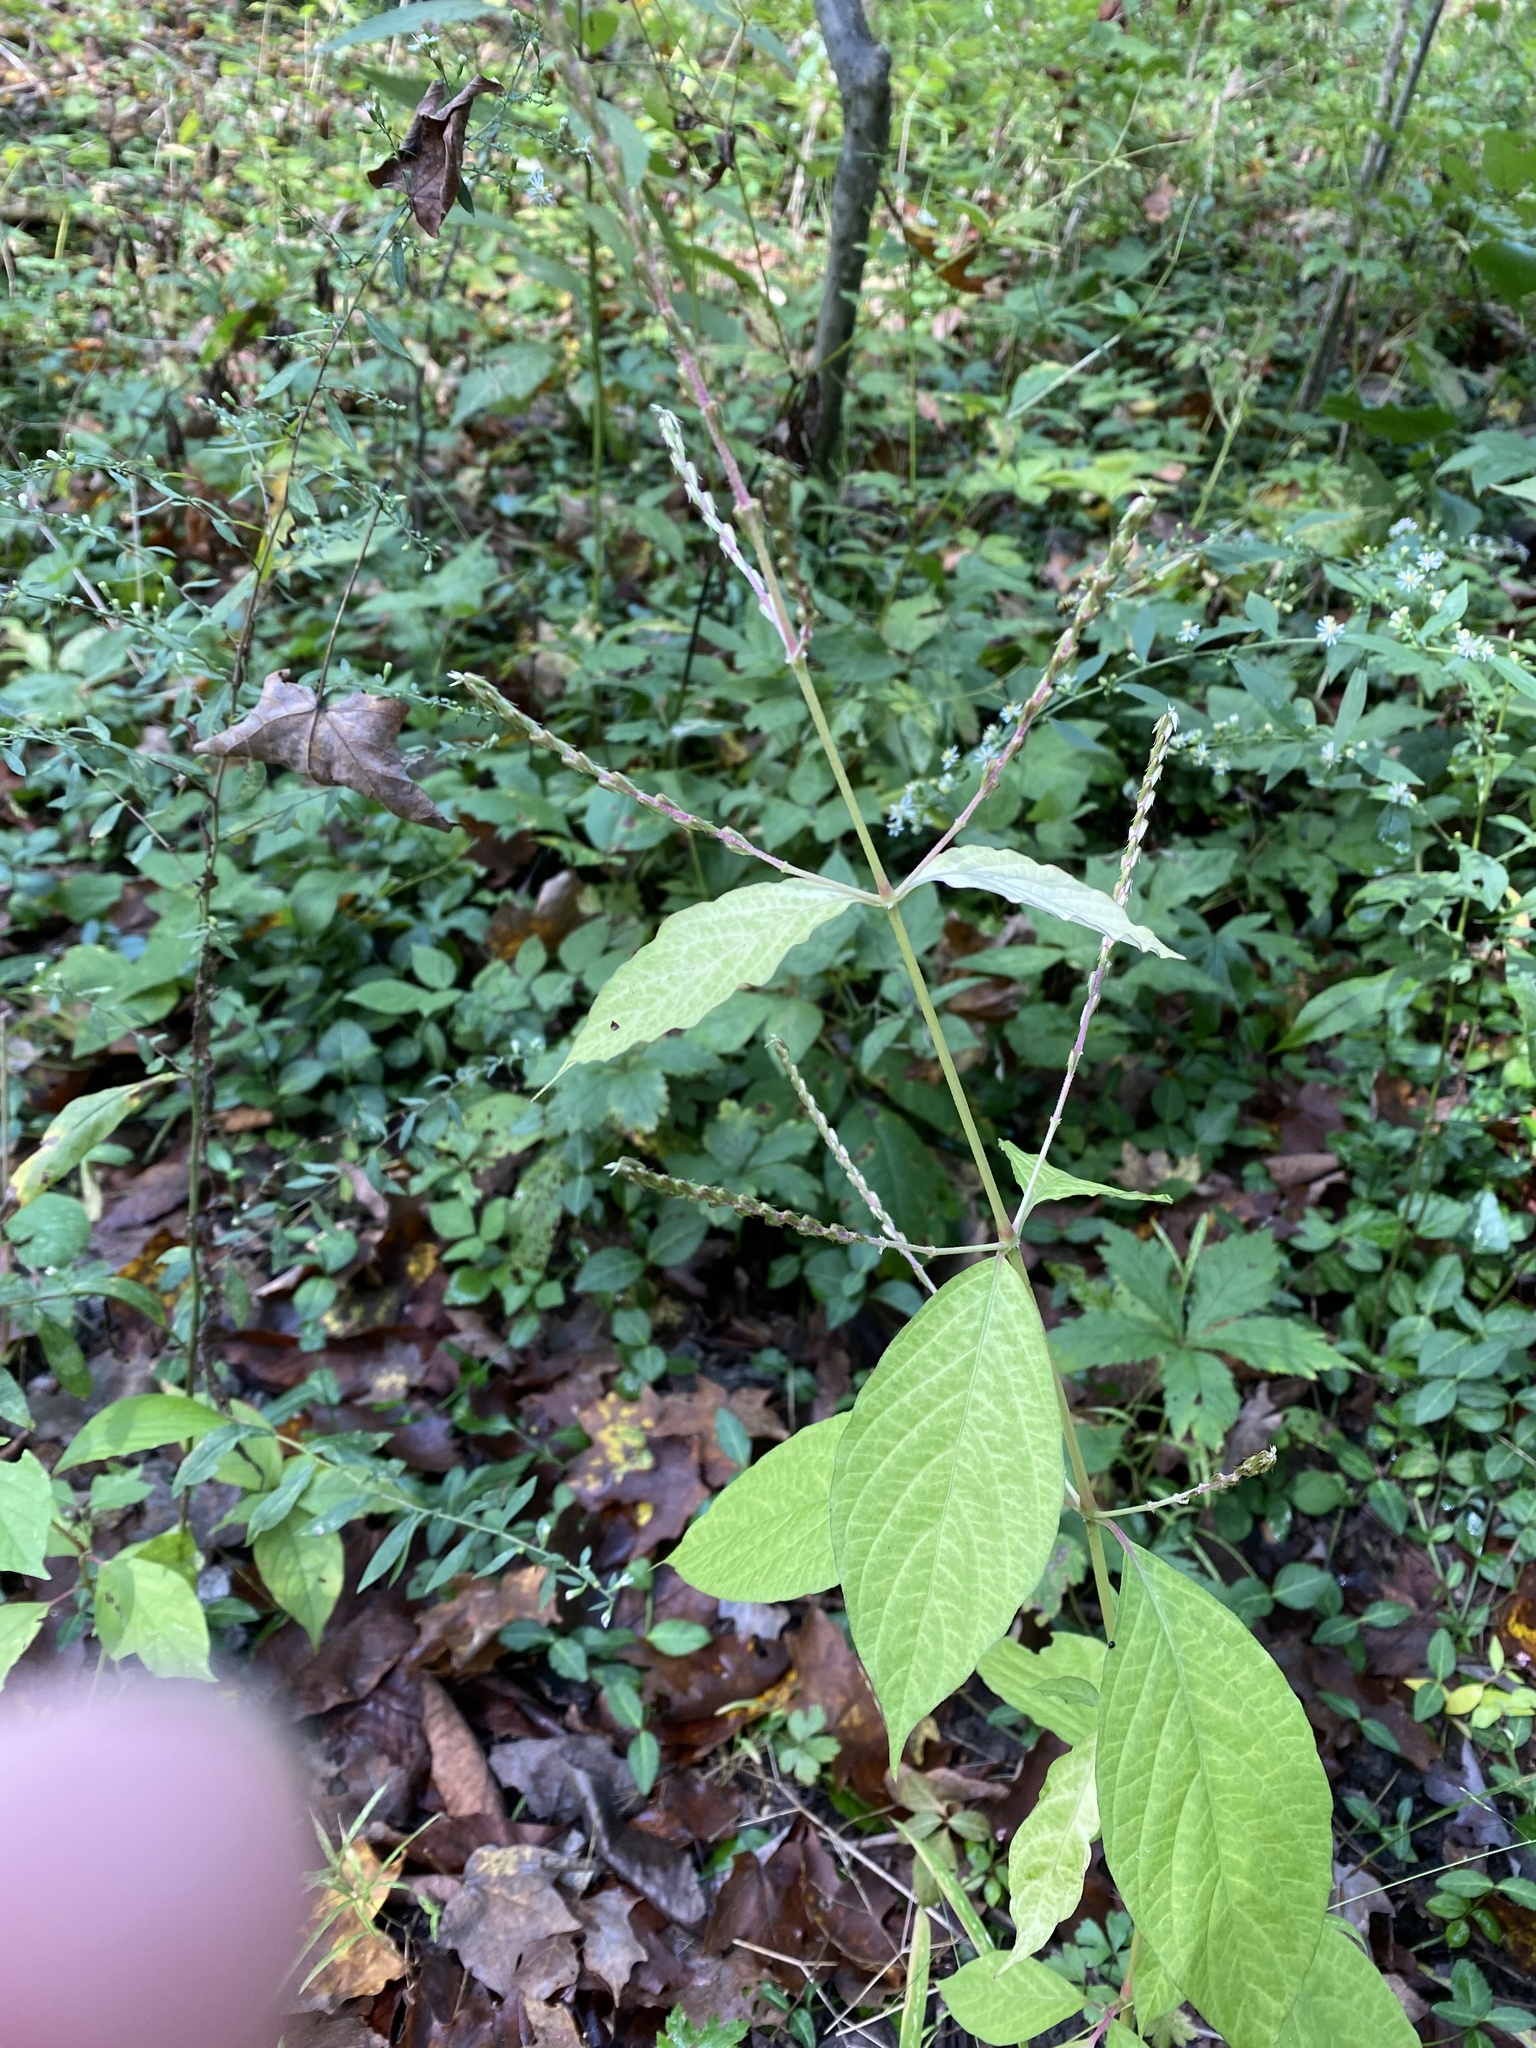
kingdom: Plantae
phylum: Tracheophyta
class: Magnoliopsida
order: Caryophyllales
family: Amaranthaceae
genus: Achyranthes
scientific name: Achyranthes bidentata
